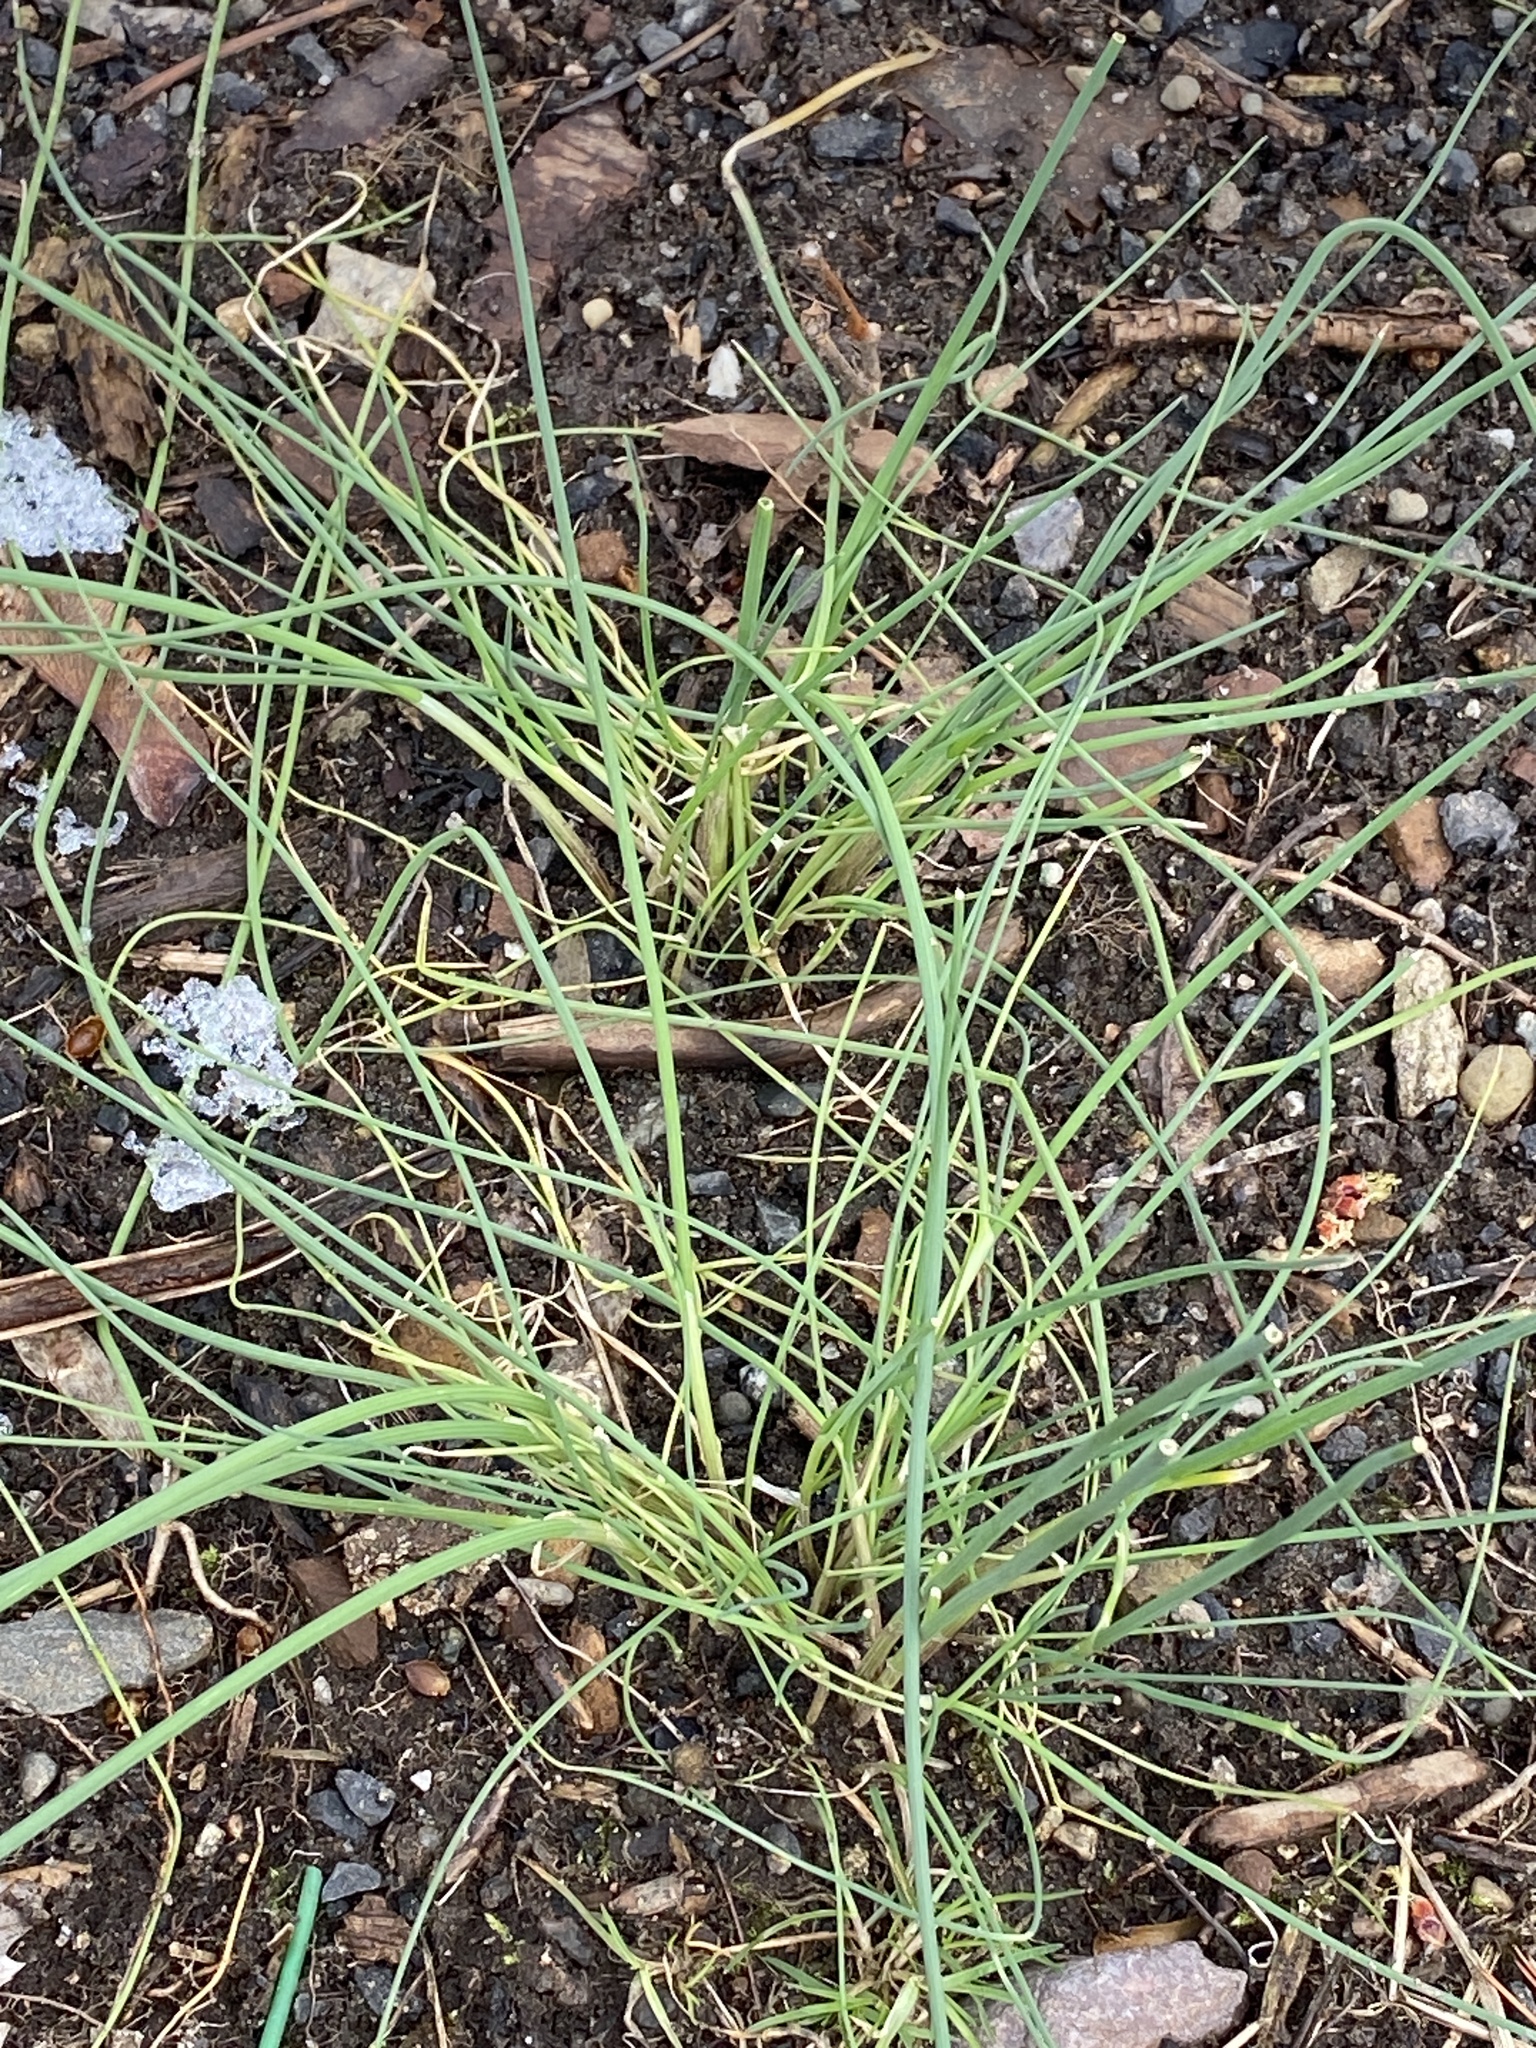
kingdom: Plantae
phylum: Tracheophyta
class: Liliopsida
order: Asparagales
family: Amaryllidaceae
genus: Allium
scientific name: Allium vineale
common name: Crow garlic
